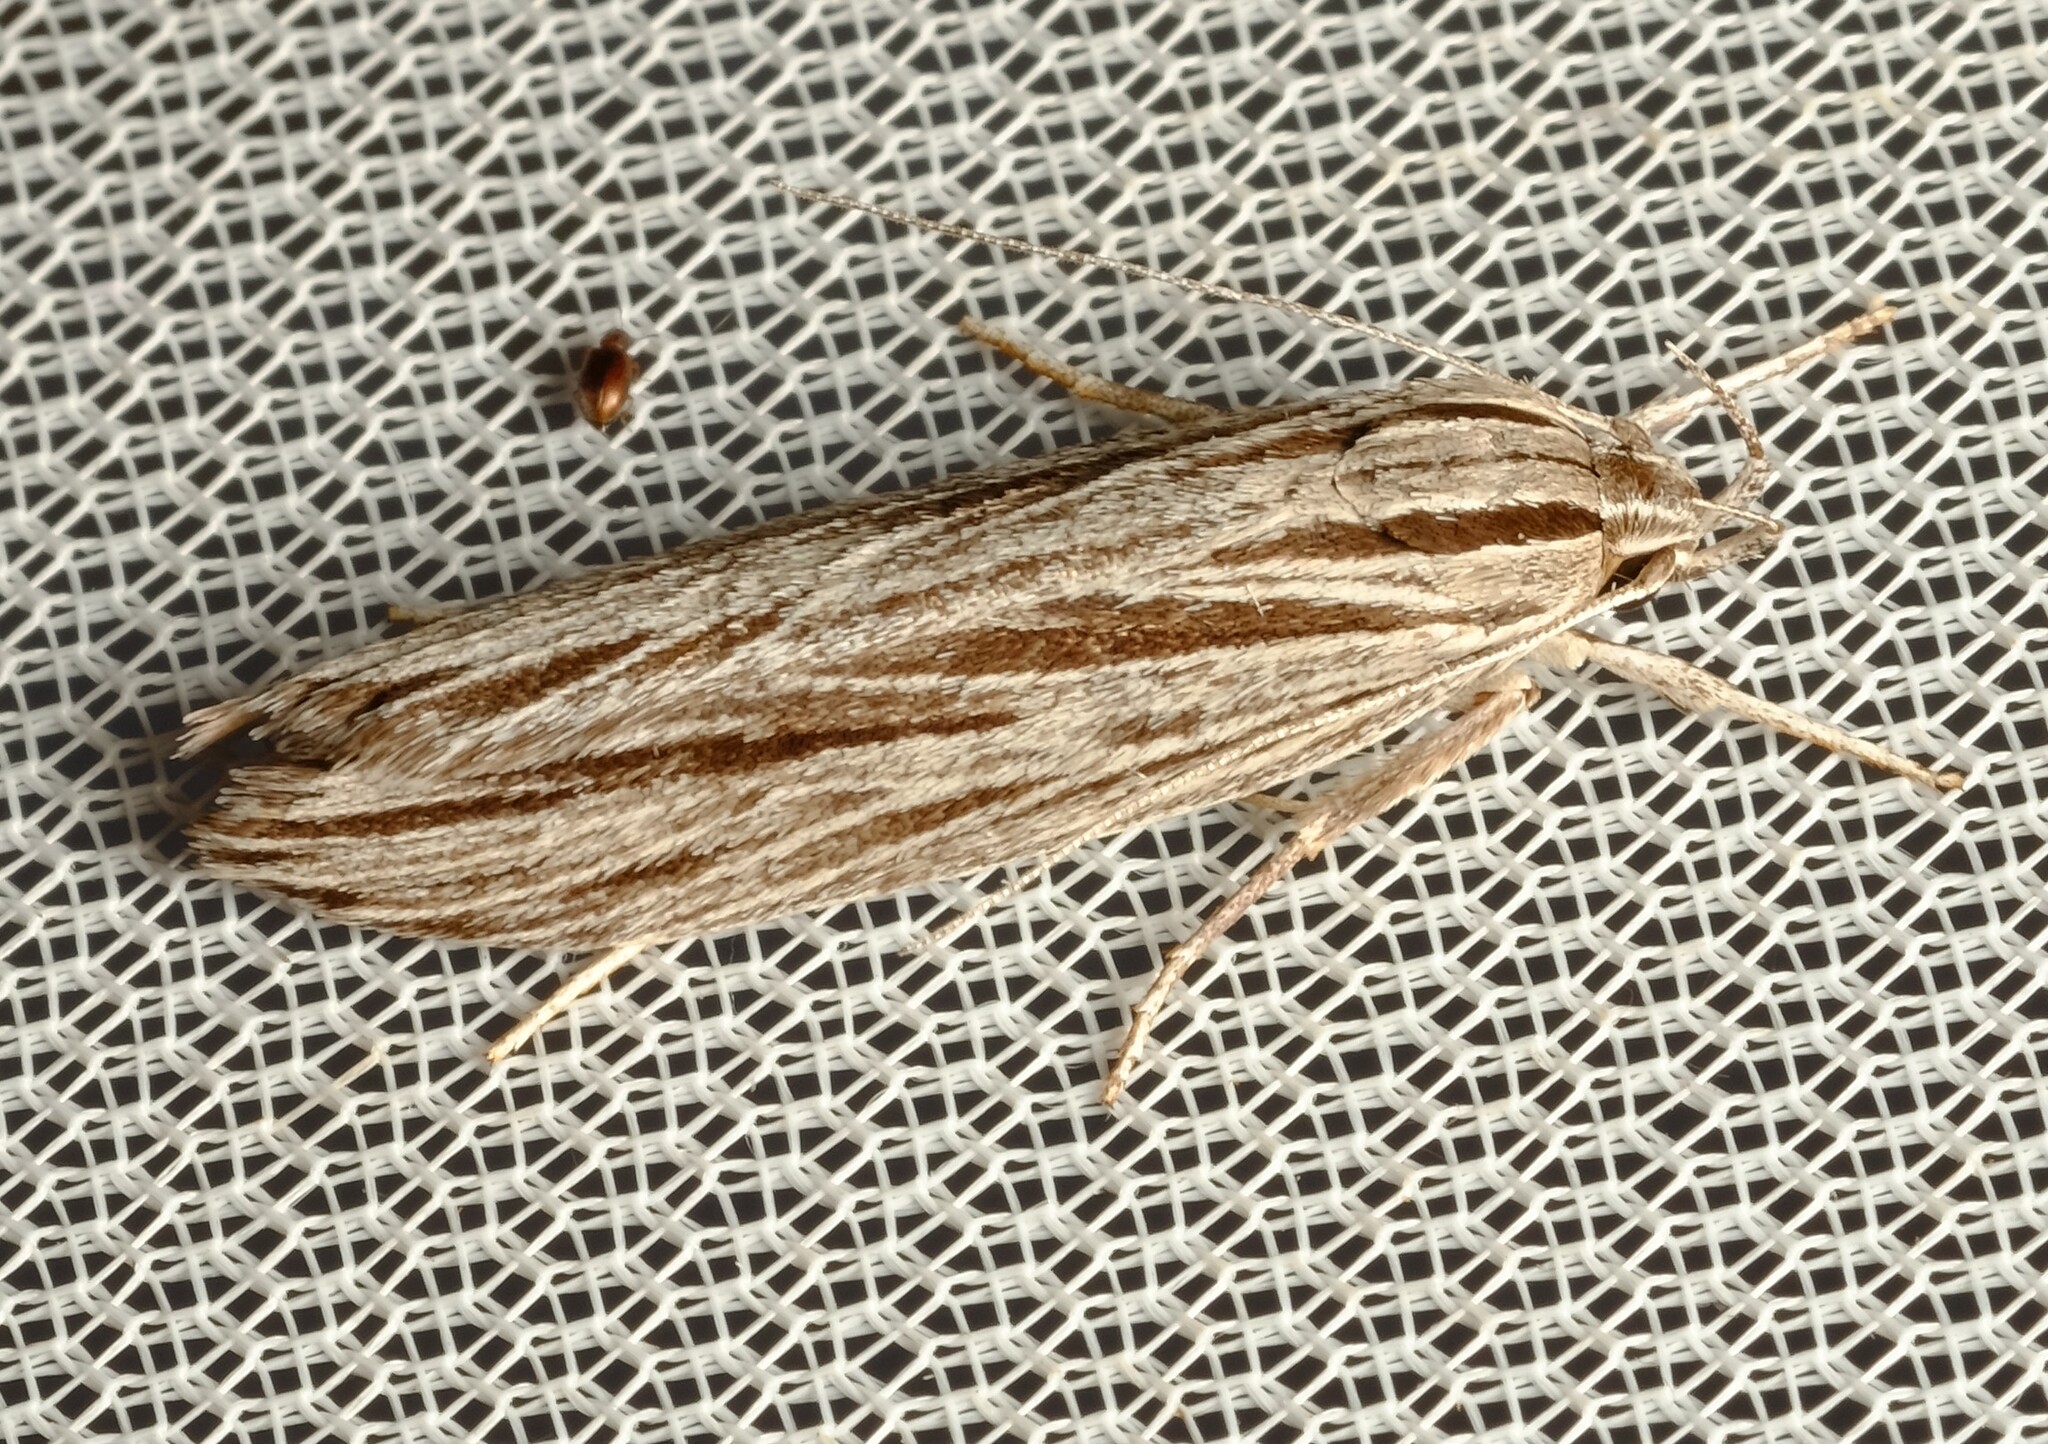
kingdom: Animalia
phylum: Arthropoda
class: Insecta
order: Lepidoptera
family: Xyloryctidae
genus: Leistarcha
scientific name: Leistarcha scitissimella
